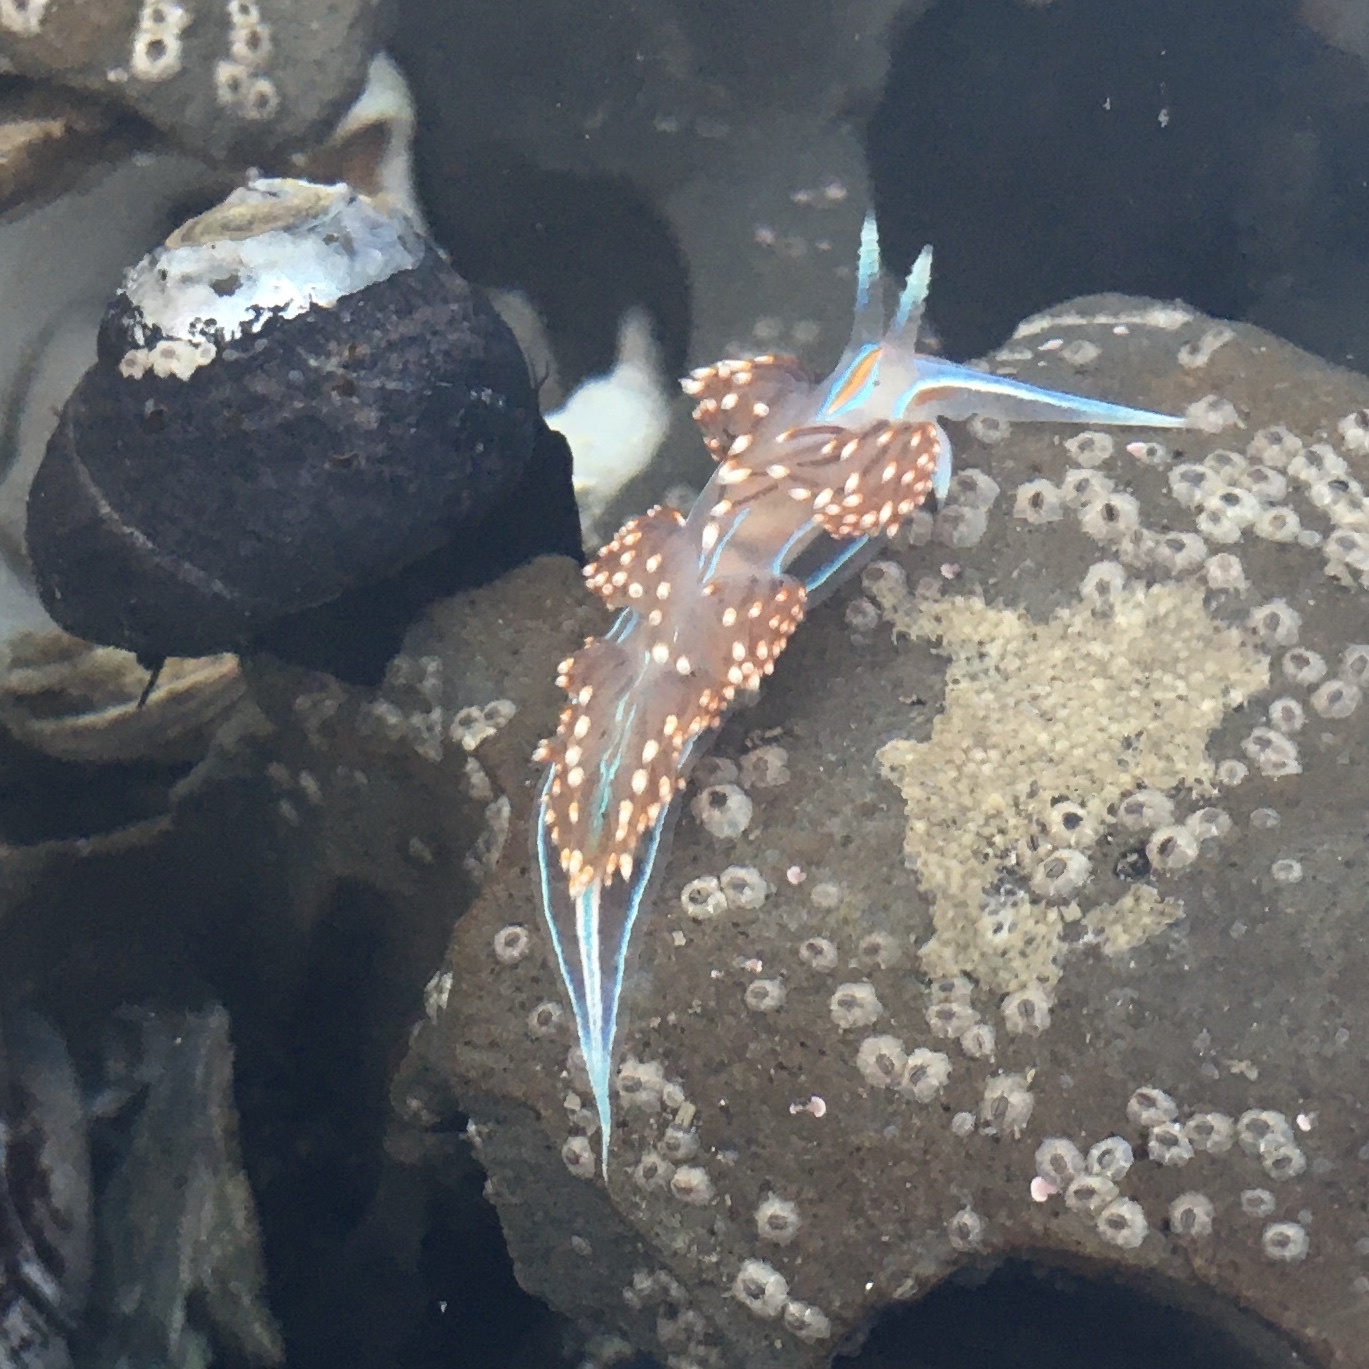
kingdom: Animalia
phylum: Mollusca
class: Gastropoda
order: Nudibranchia
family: Myrrhinidae
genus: Hermissenda
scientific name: Hermissenda opalescens
